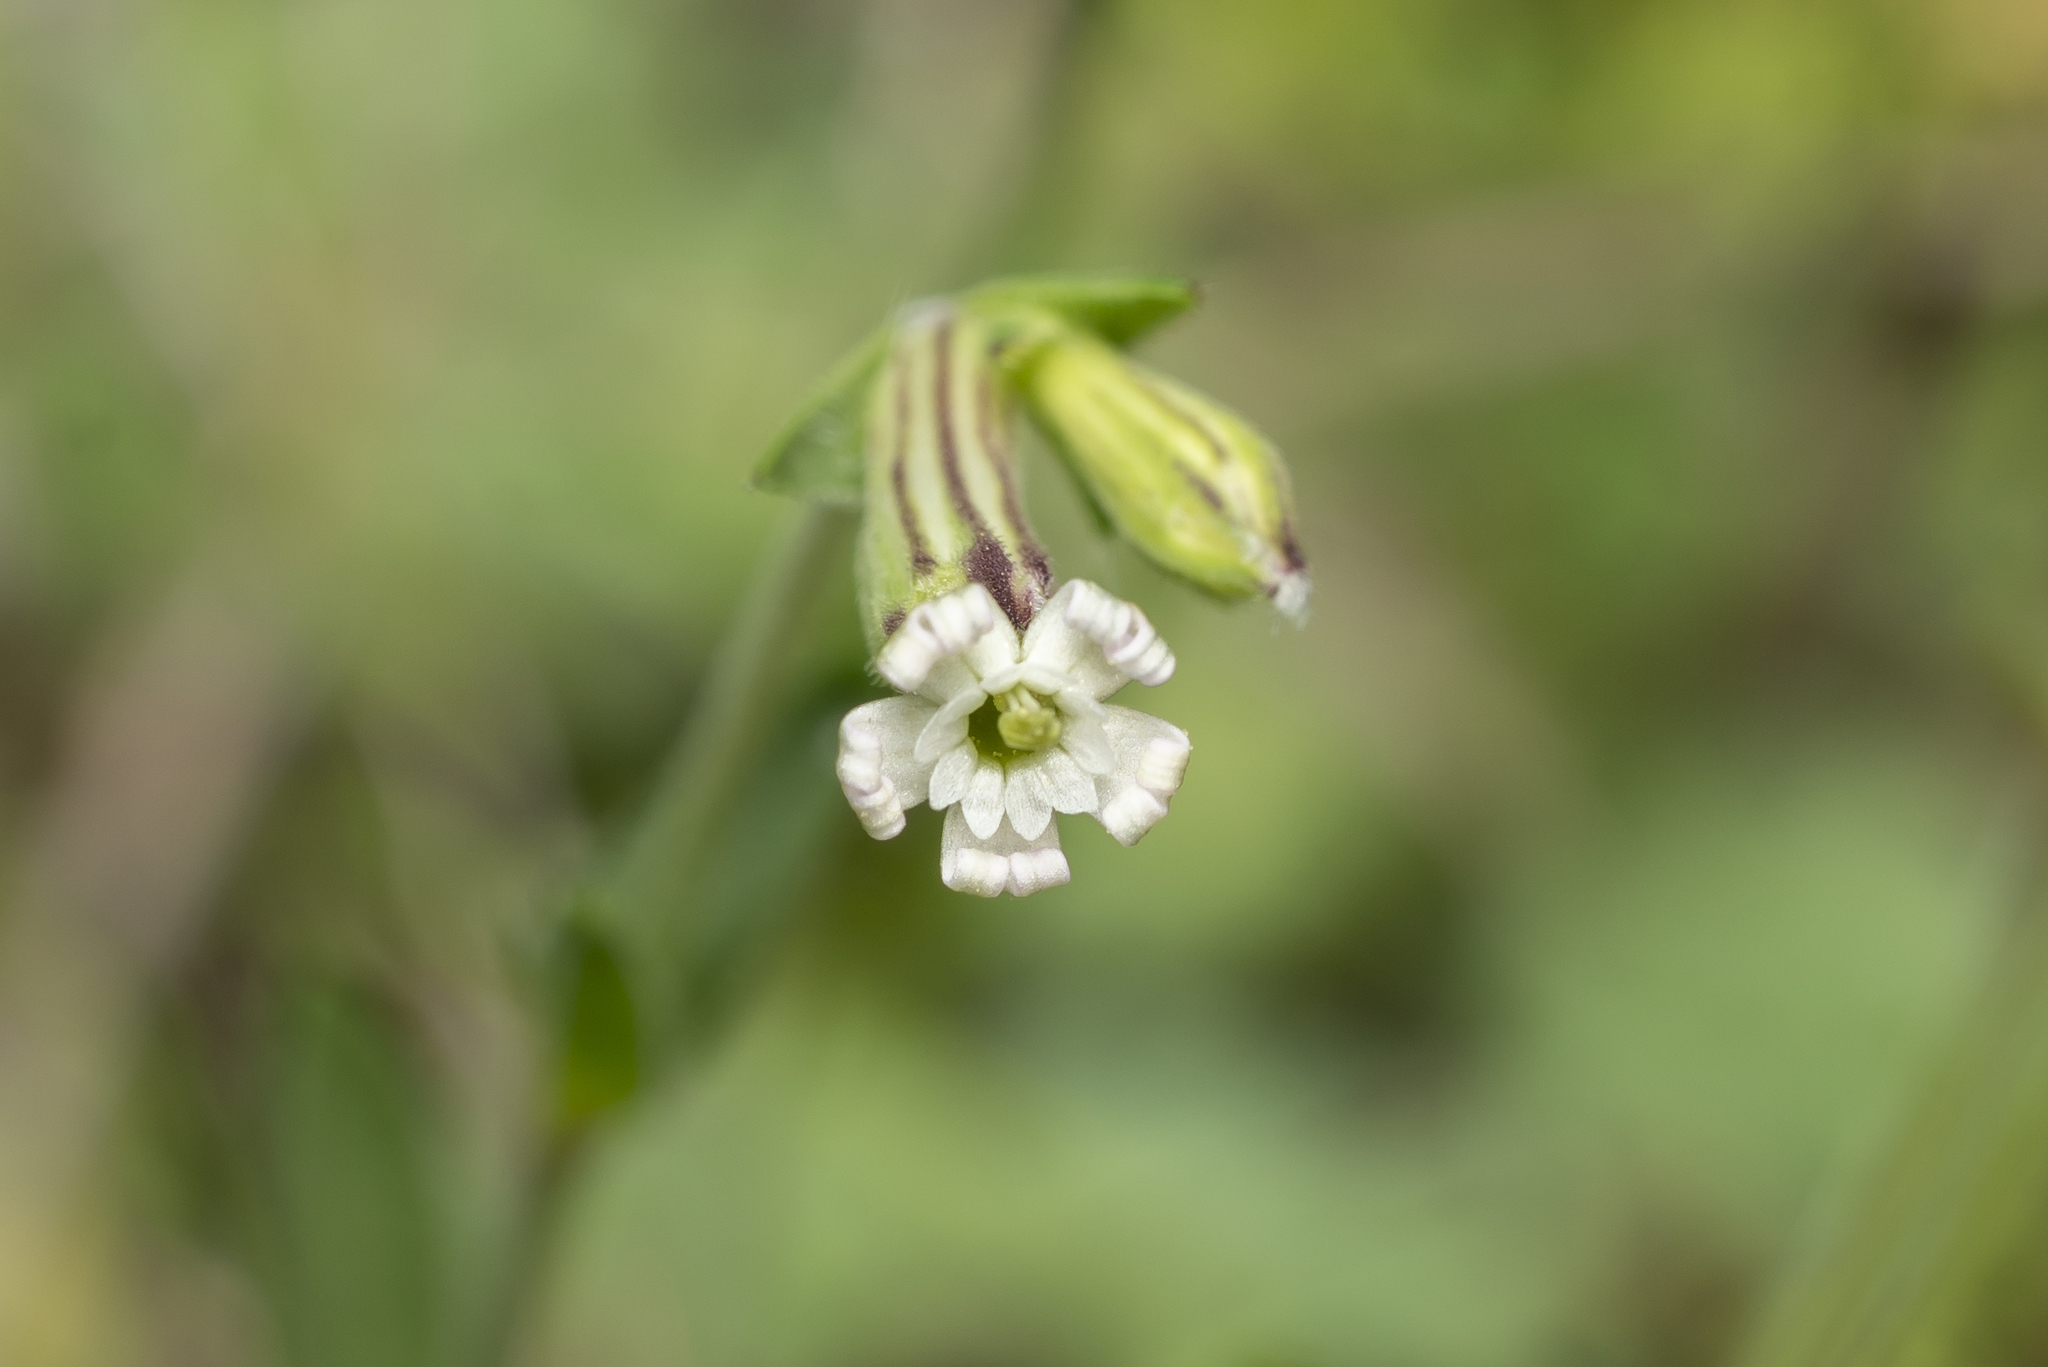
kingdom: Plantae
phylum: Tracheophyta
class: Magnoliopsida
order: Caryophyllales
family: Caryophyllaceae
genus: Silene
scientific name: Silene colorata
